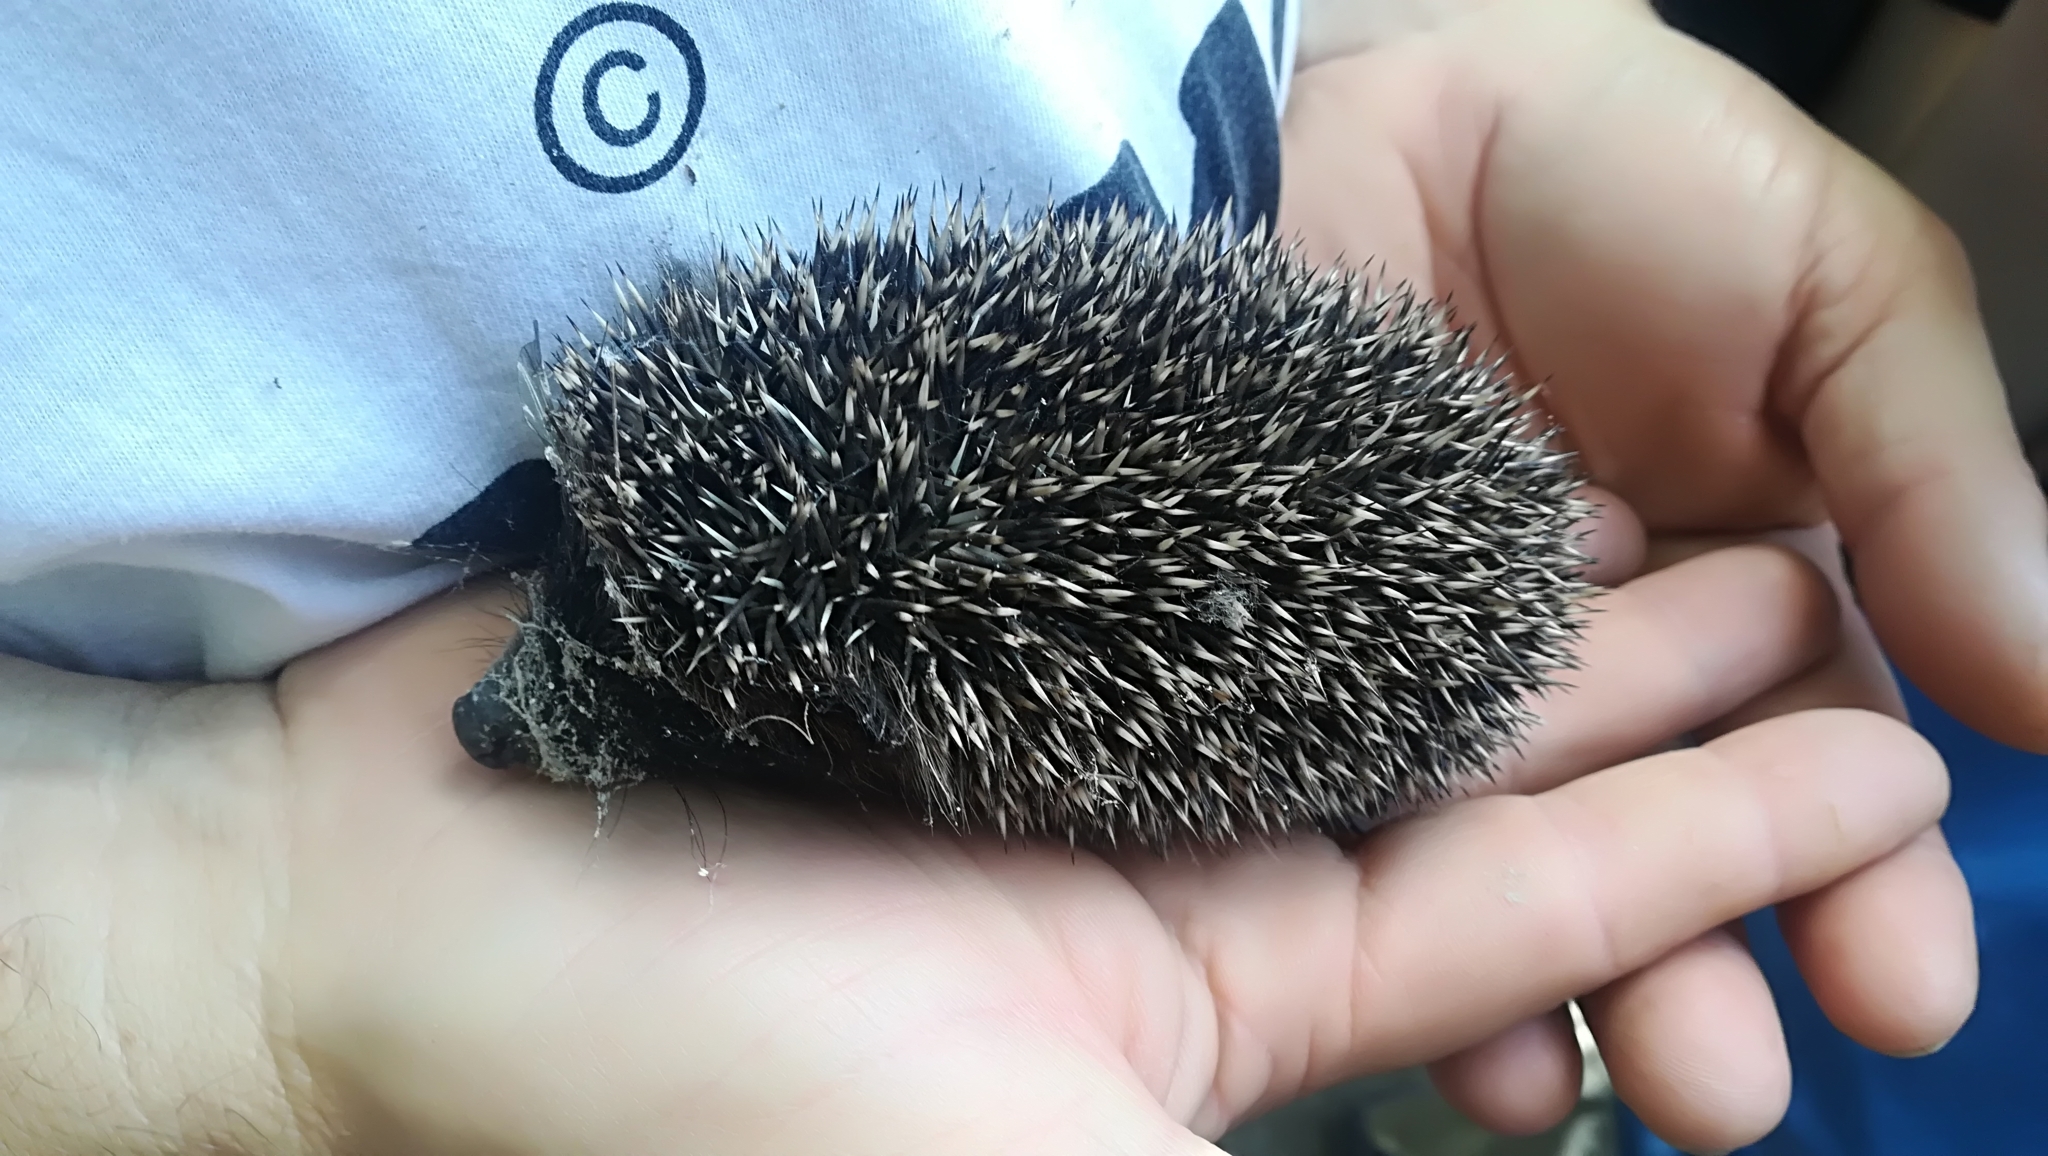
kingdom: Animalia
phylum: Chordata
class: Mammalia
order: Erinaceomorpha
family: Erinaceidae
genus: Erinaceus
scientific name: Erinaceus europaeus
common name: West european hedgehog
